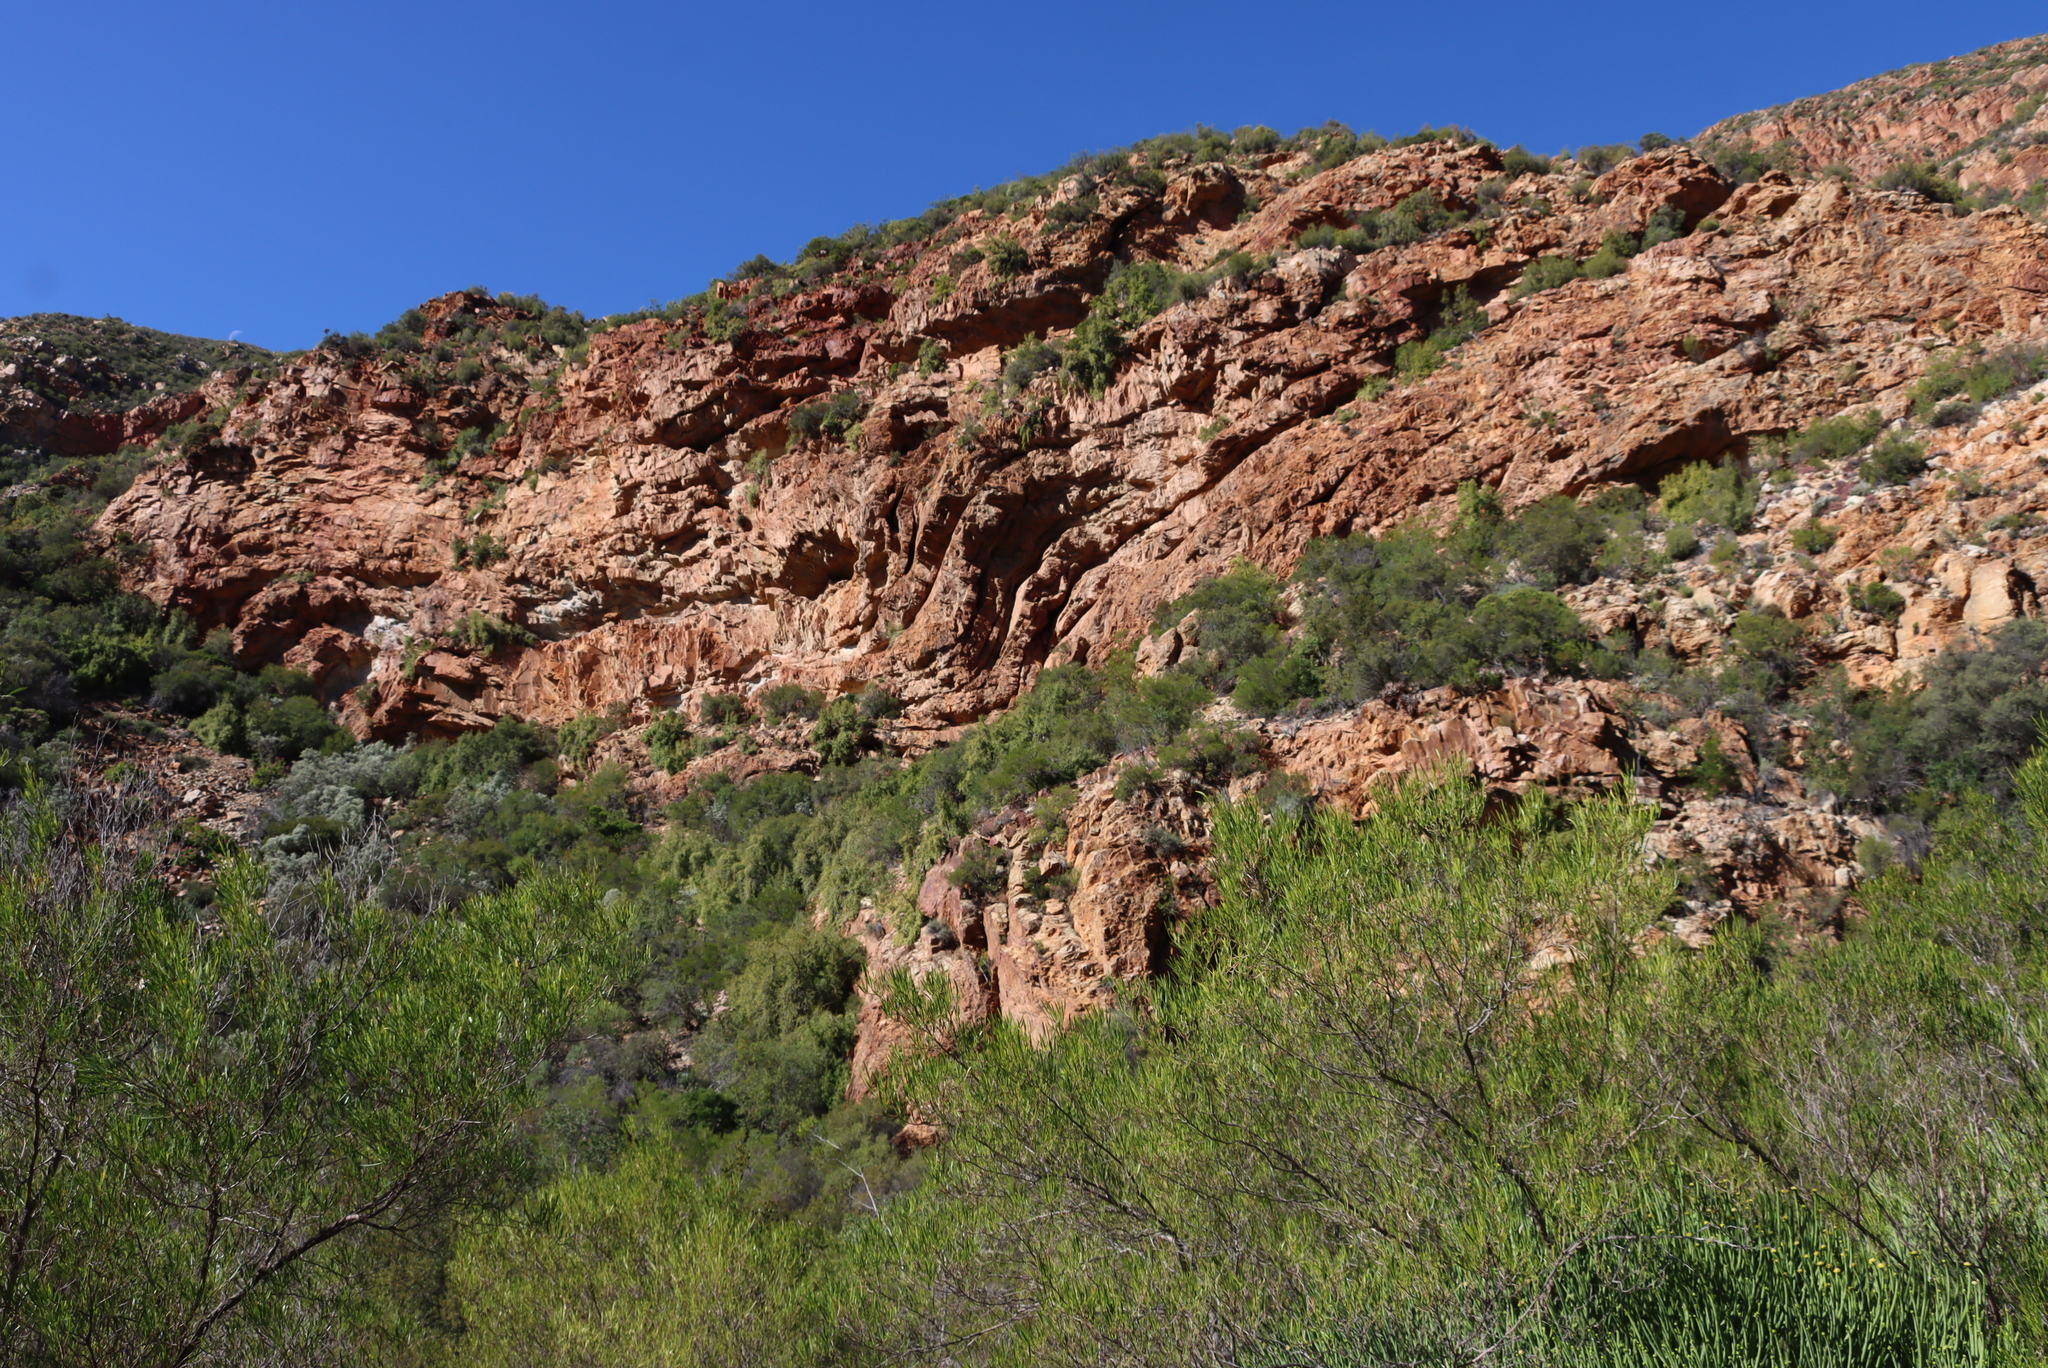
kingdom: Plantae
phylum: Tracheophyta
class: Magnoliopsida
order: Sapindales
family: Sapindaceae
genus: Dodonaea
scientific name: Dodonaea viscosa
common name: Hopbush
